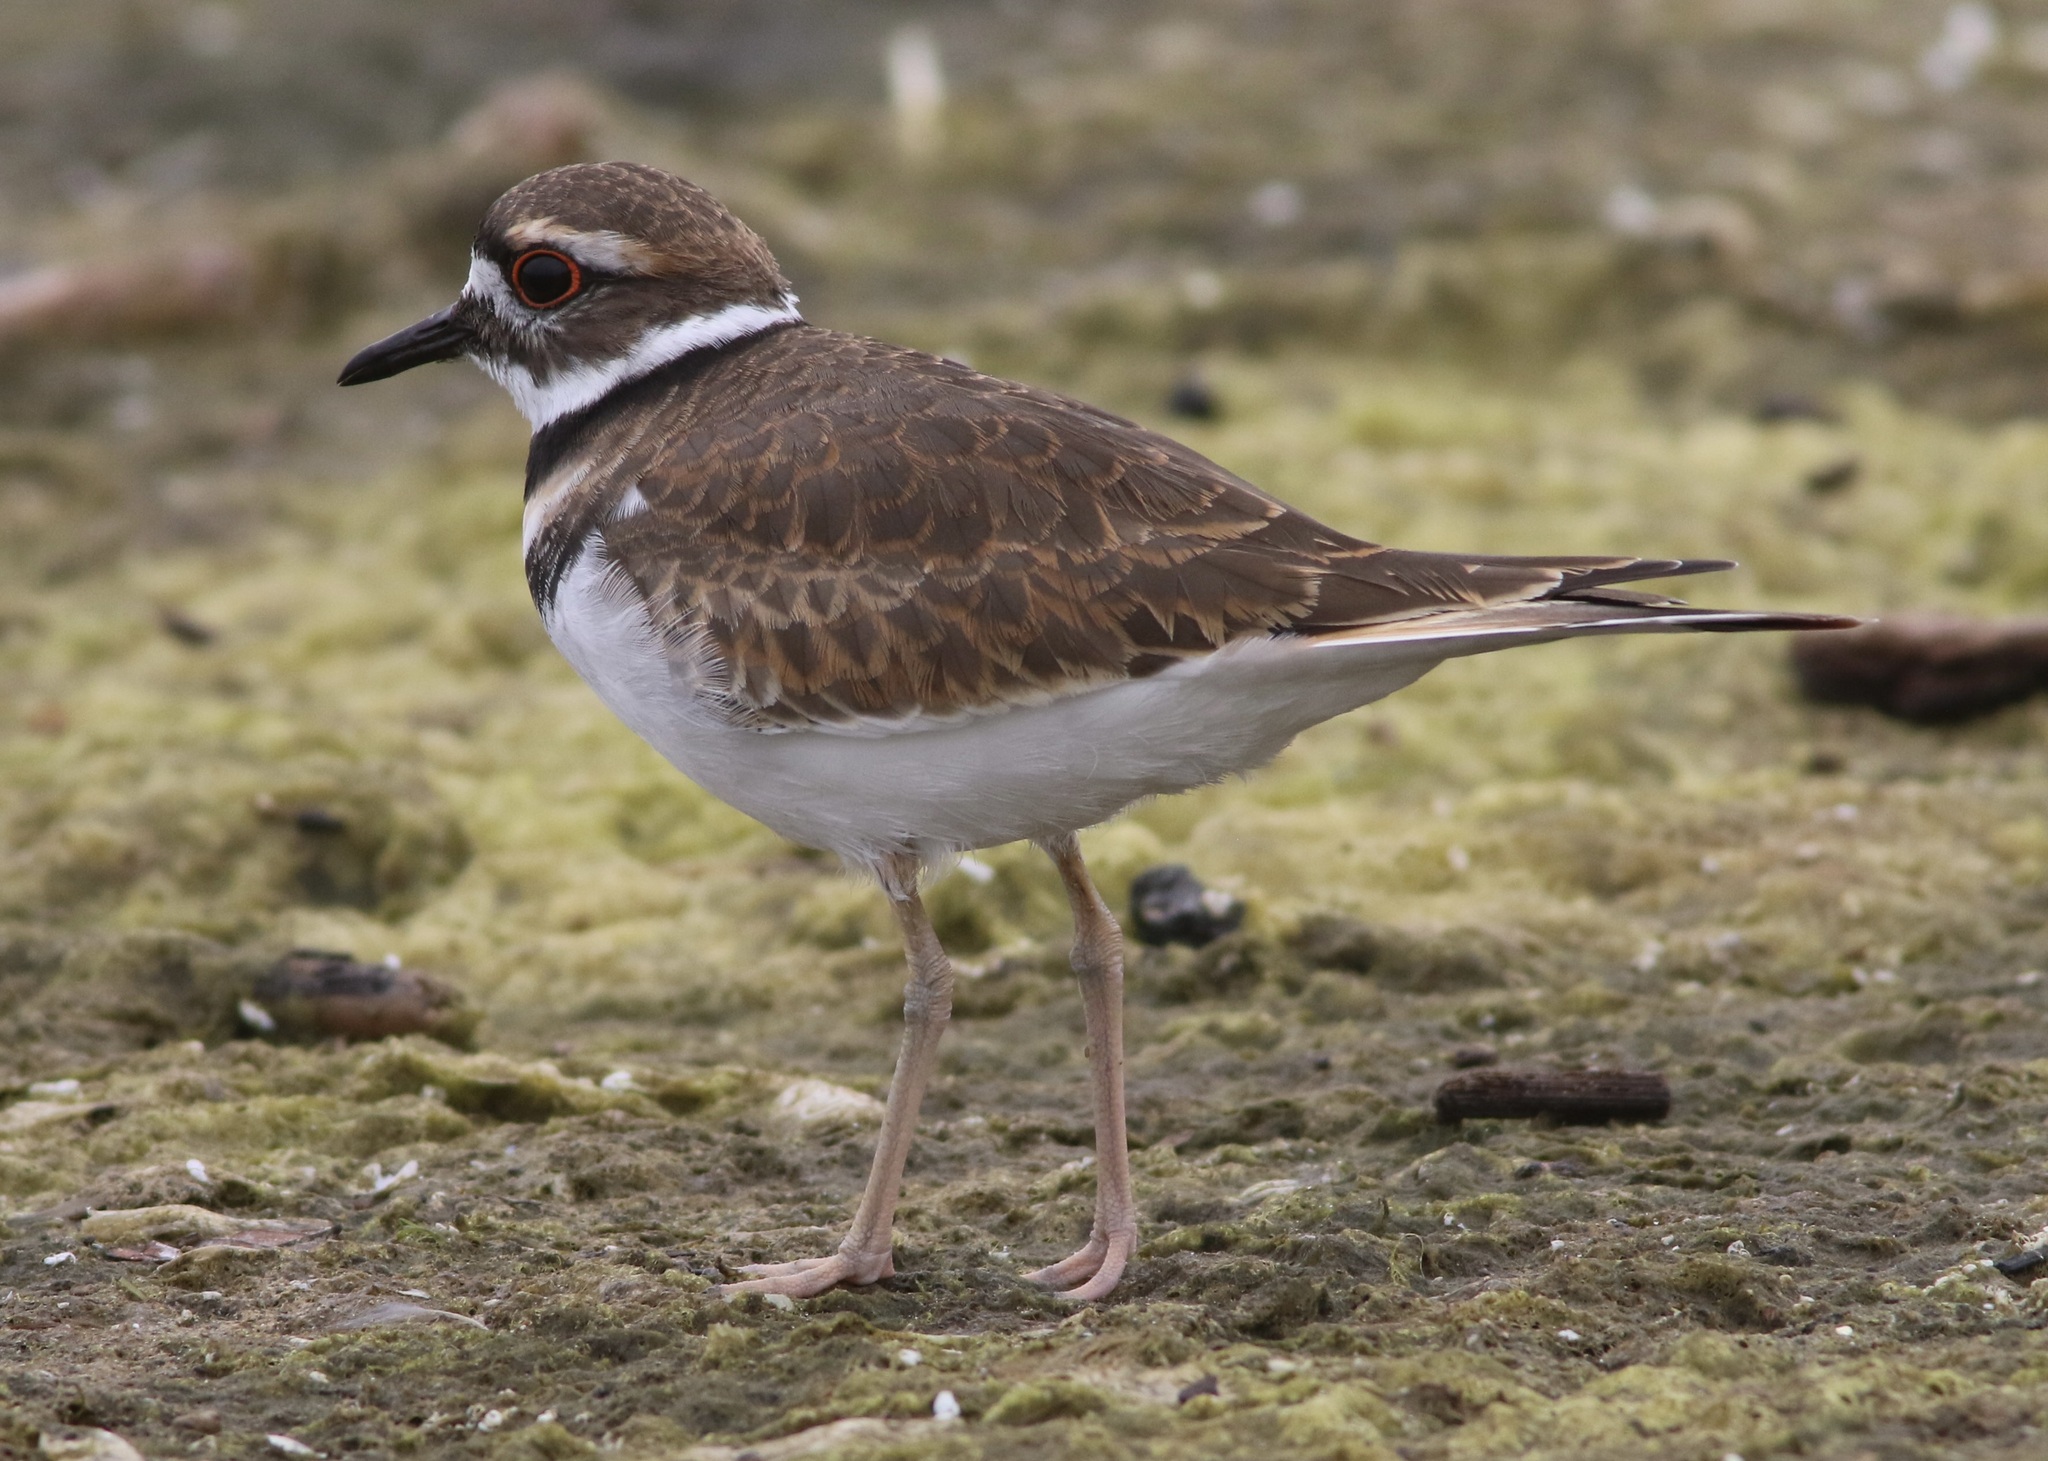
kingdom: Animalia
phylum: Chordata
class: Aves
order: Charadriiformes
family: Charadriidae
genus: Charadrius
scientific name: Charadrius vociferus
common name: Killdeer
